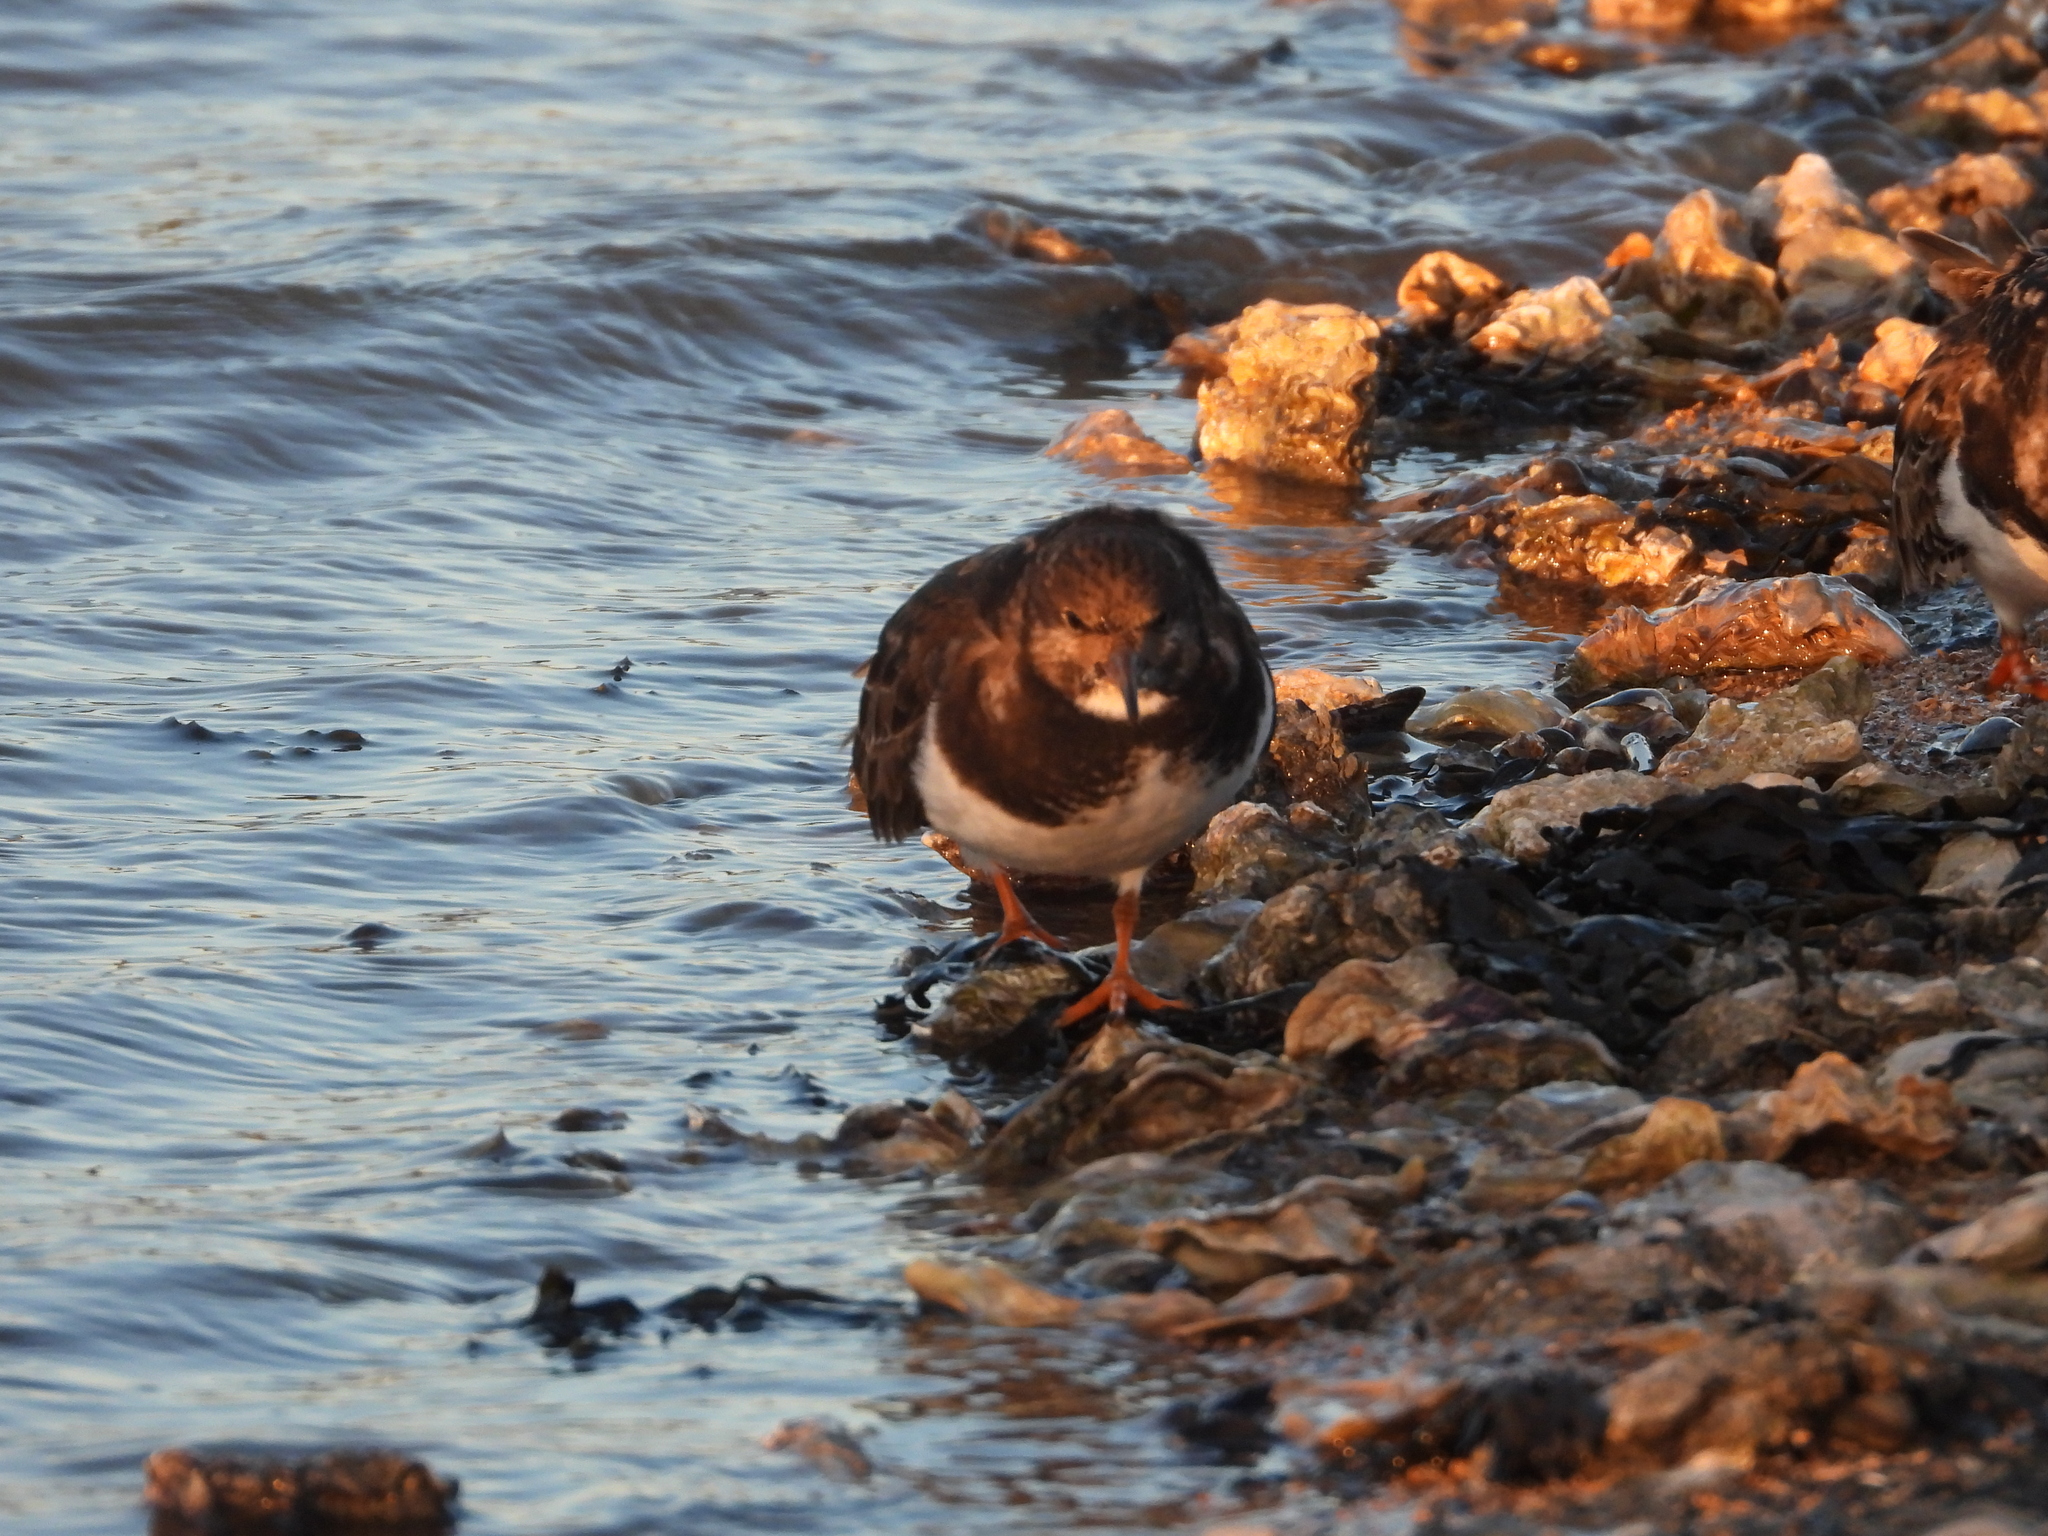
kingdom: Animalia
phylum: Chordata
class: Aves
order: Charadriiformes
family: Scolopacidae
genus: Arenaria
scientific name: Arenaria interpres
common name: Ruddy turnstone
